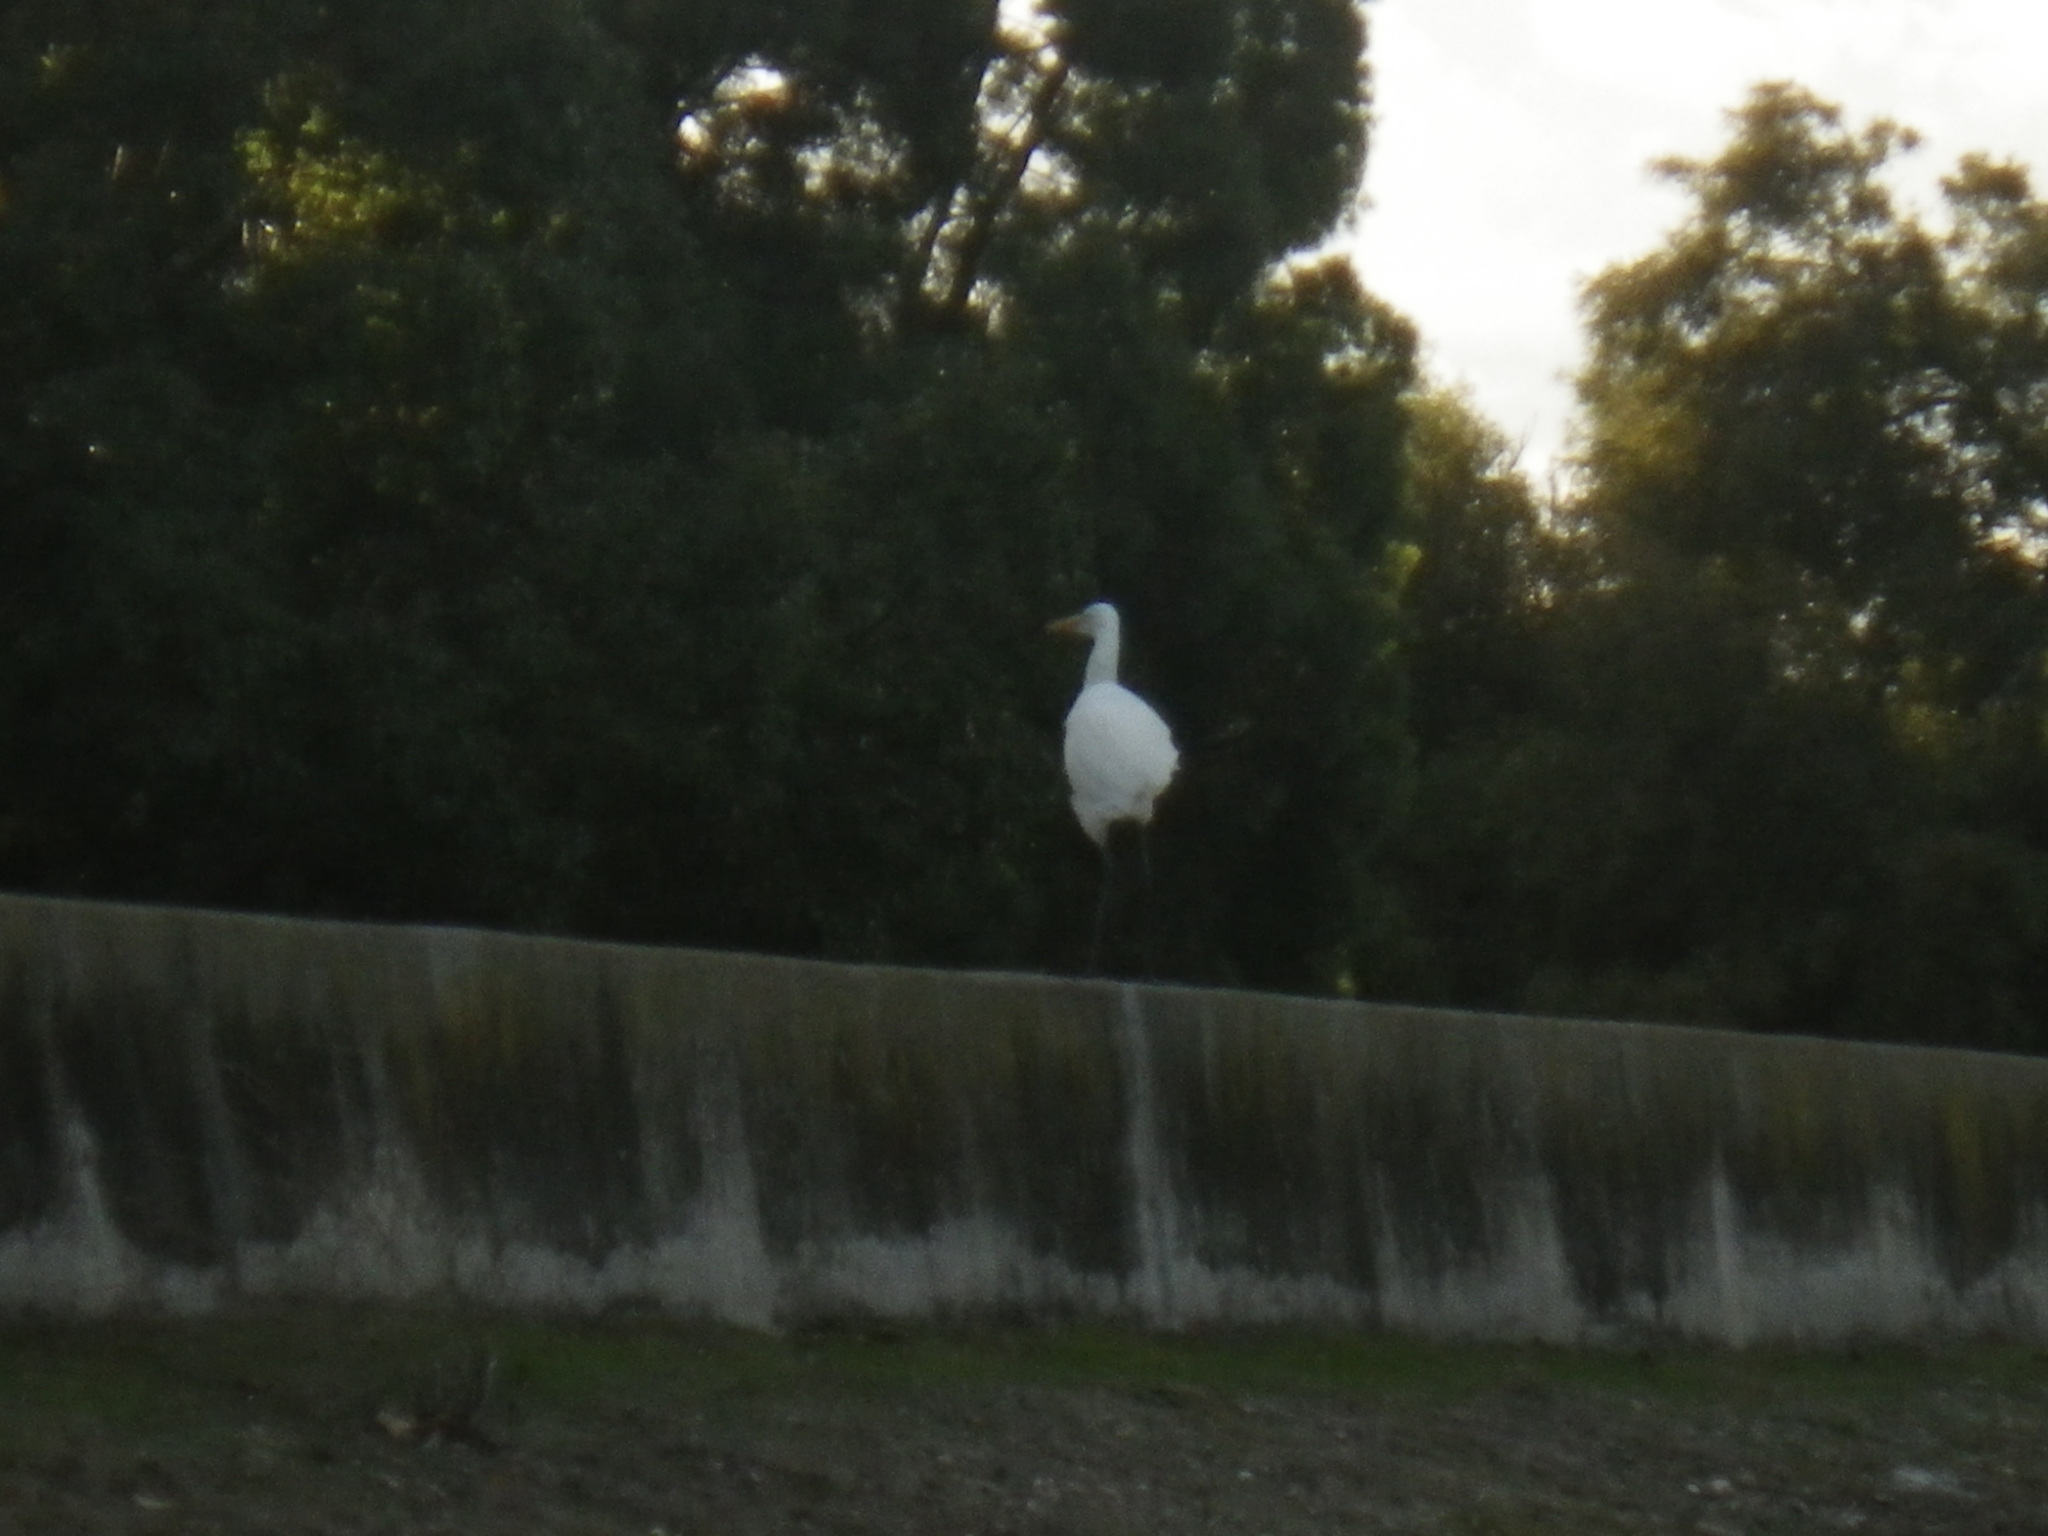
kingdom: Animalia
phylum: Chordata
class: Aves
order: Pelecaniformes
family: Ardeidae
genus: Ardea
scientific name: Ardea alba
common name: Great egret
